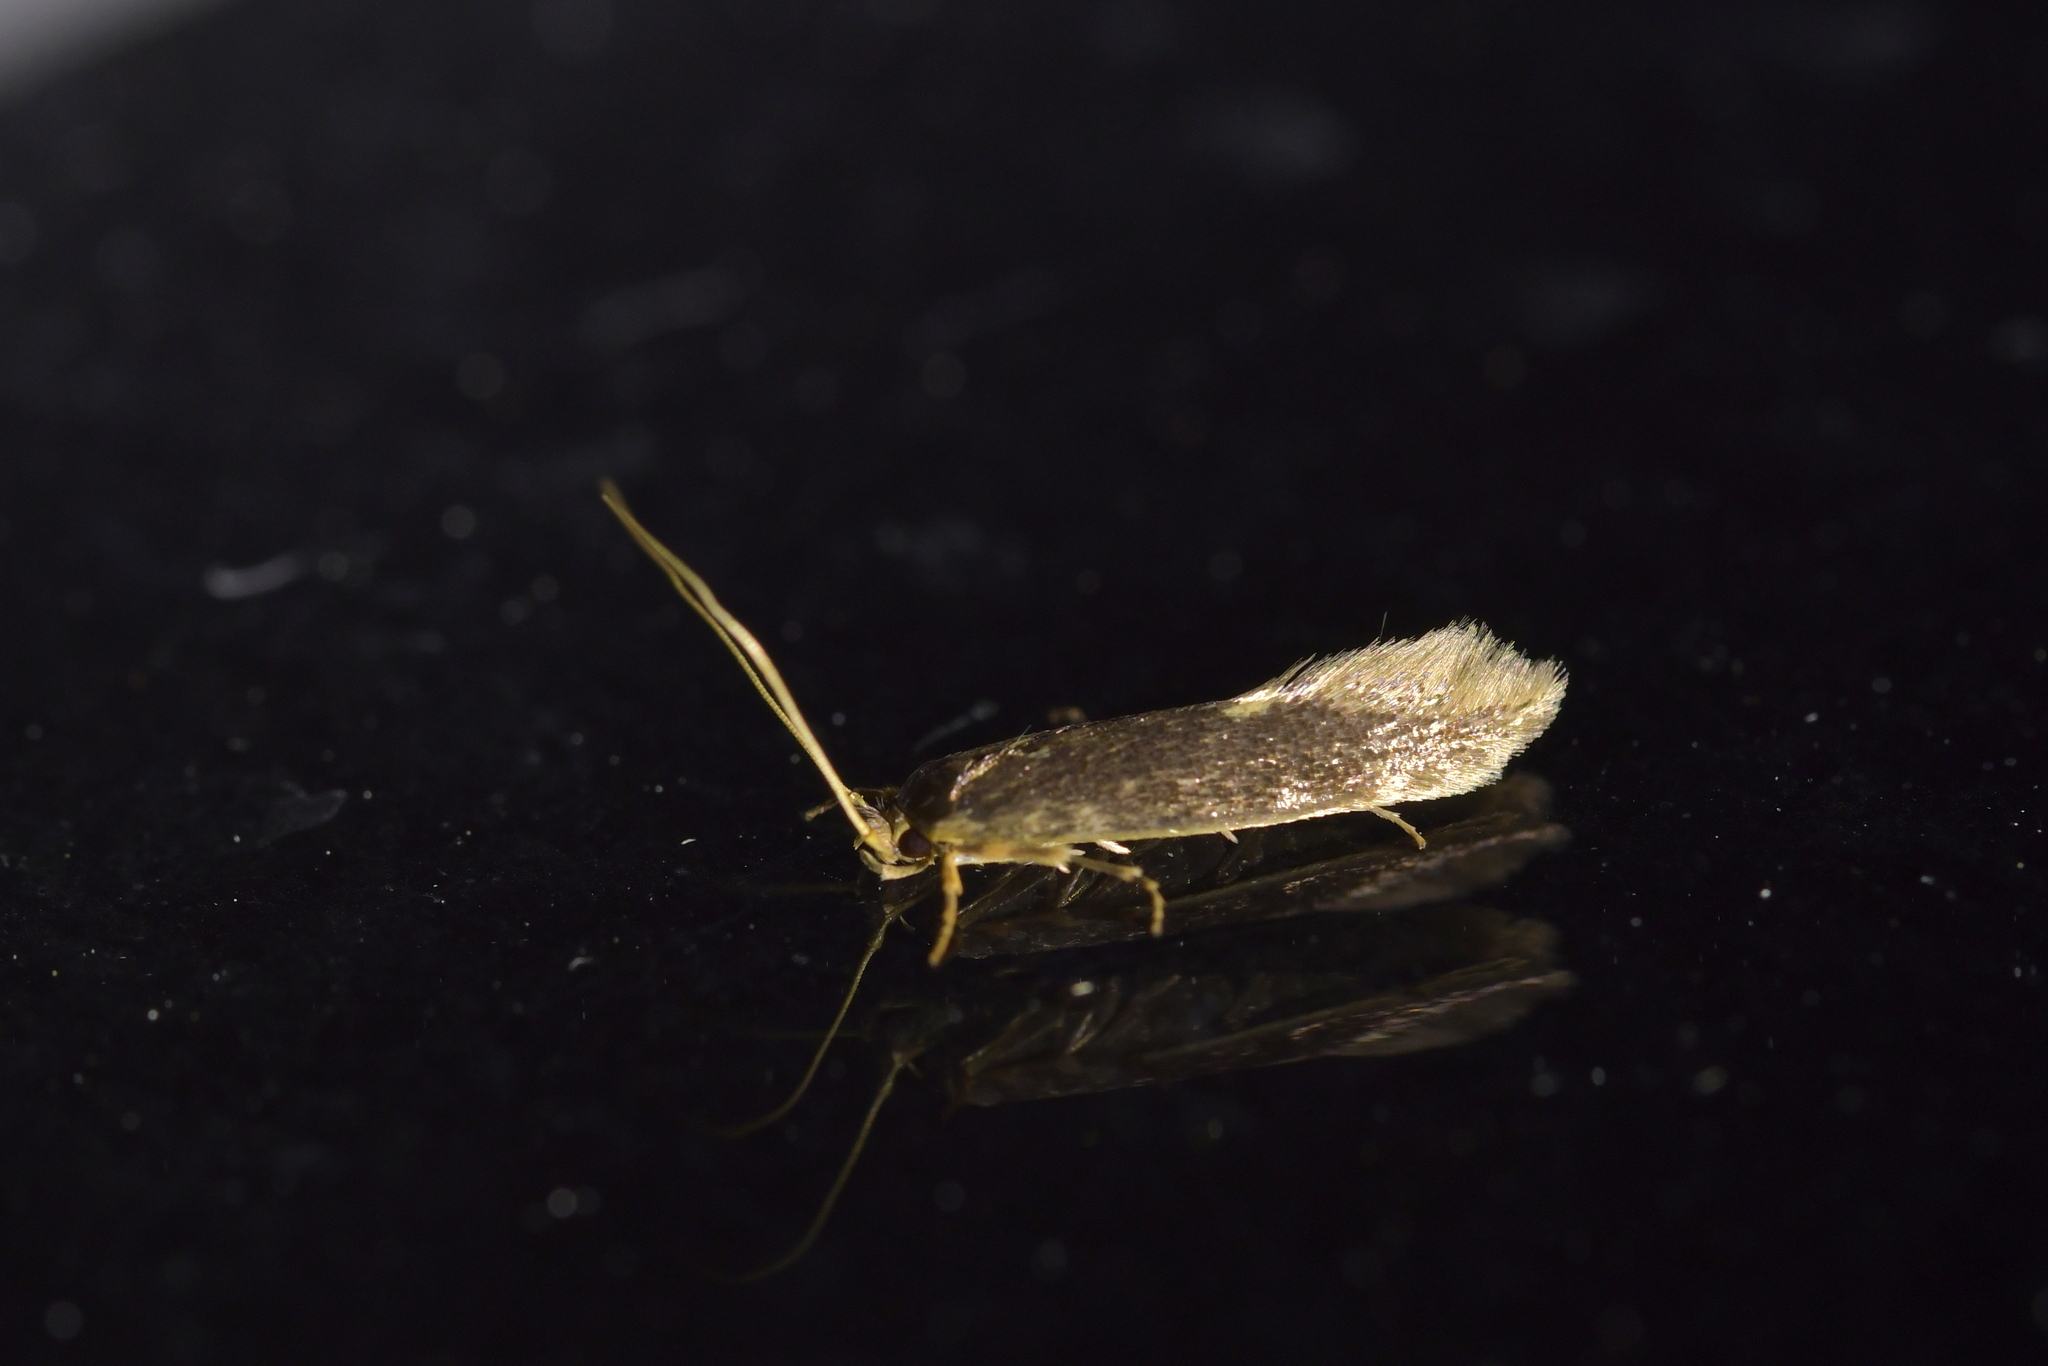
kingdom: Animalia
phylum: Arthropoda
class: Insecta
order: Lepidoptera
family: Tineidae
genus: Opogona
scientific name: Opogona omoscopa
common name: Moth
